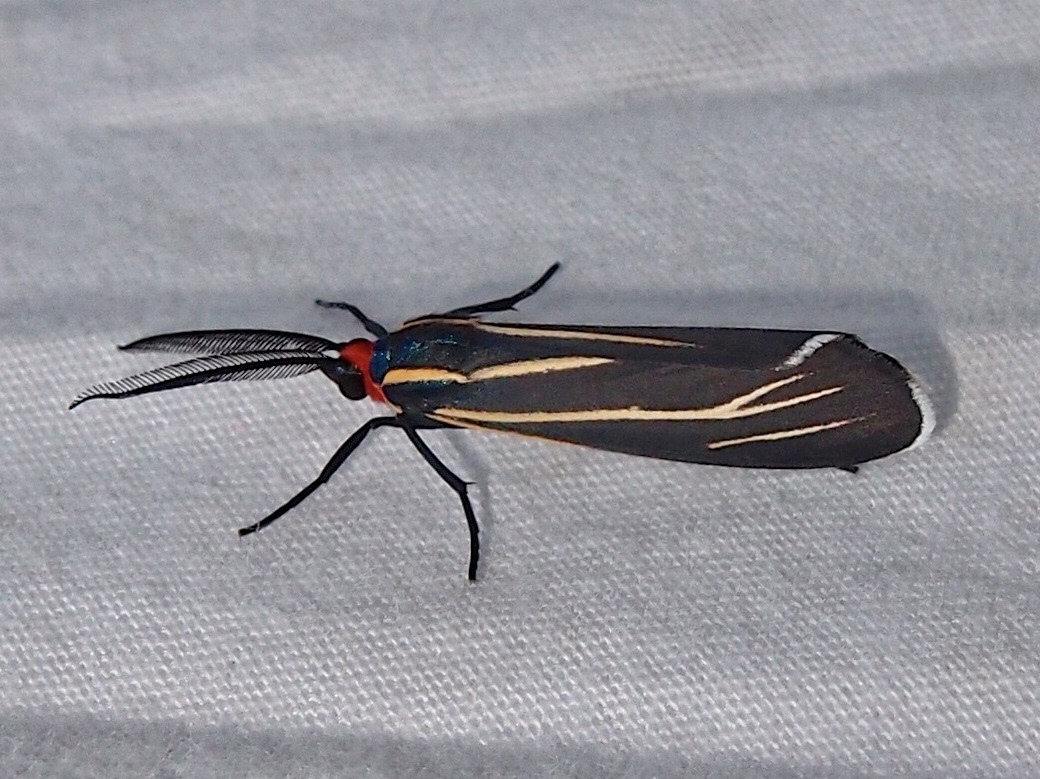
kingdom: Animalia
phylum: Arthropoda
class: Insecta
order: Lepidoptera
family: Erebidae
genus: Ctenucha
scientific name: Ctenucha venosa
